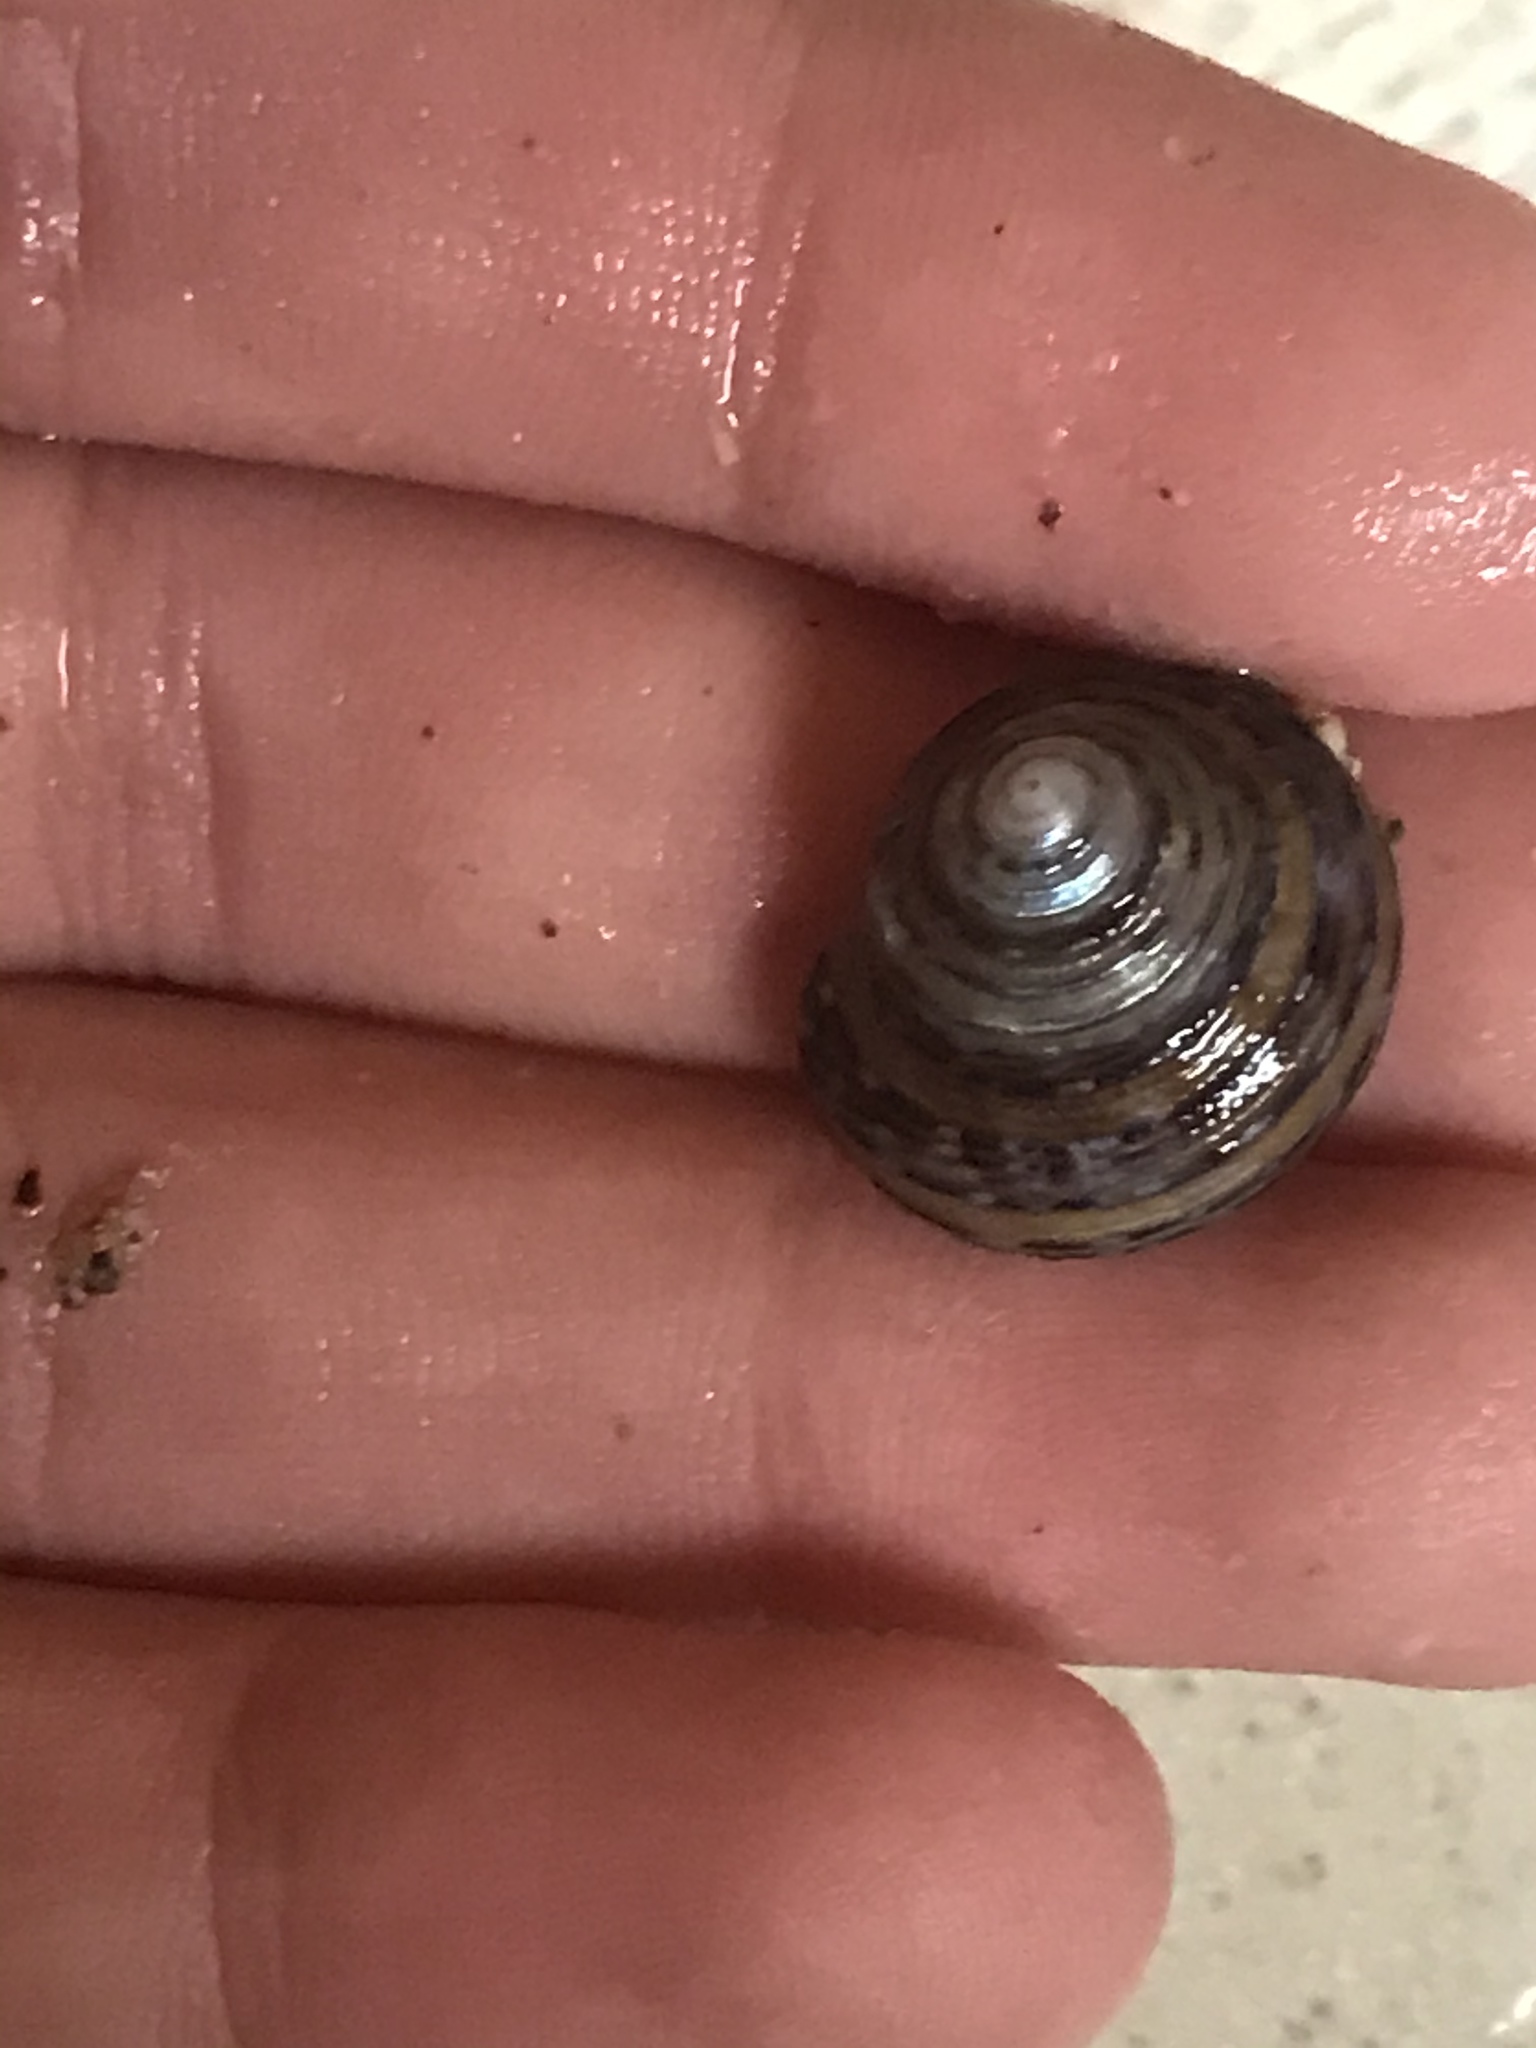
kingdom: Animalia
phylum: Mollusca
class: Gastropoda
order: Trochida
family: Calliostomatidae
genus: Calliostoma
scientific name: Calliostoma tricolor
